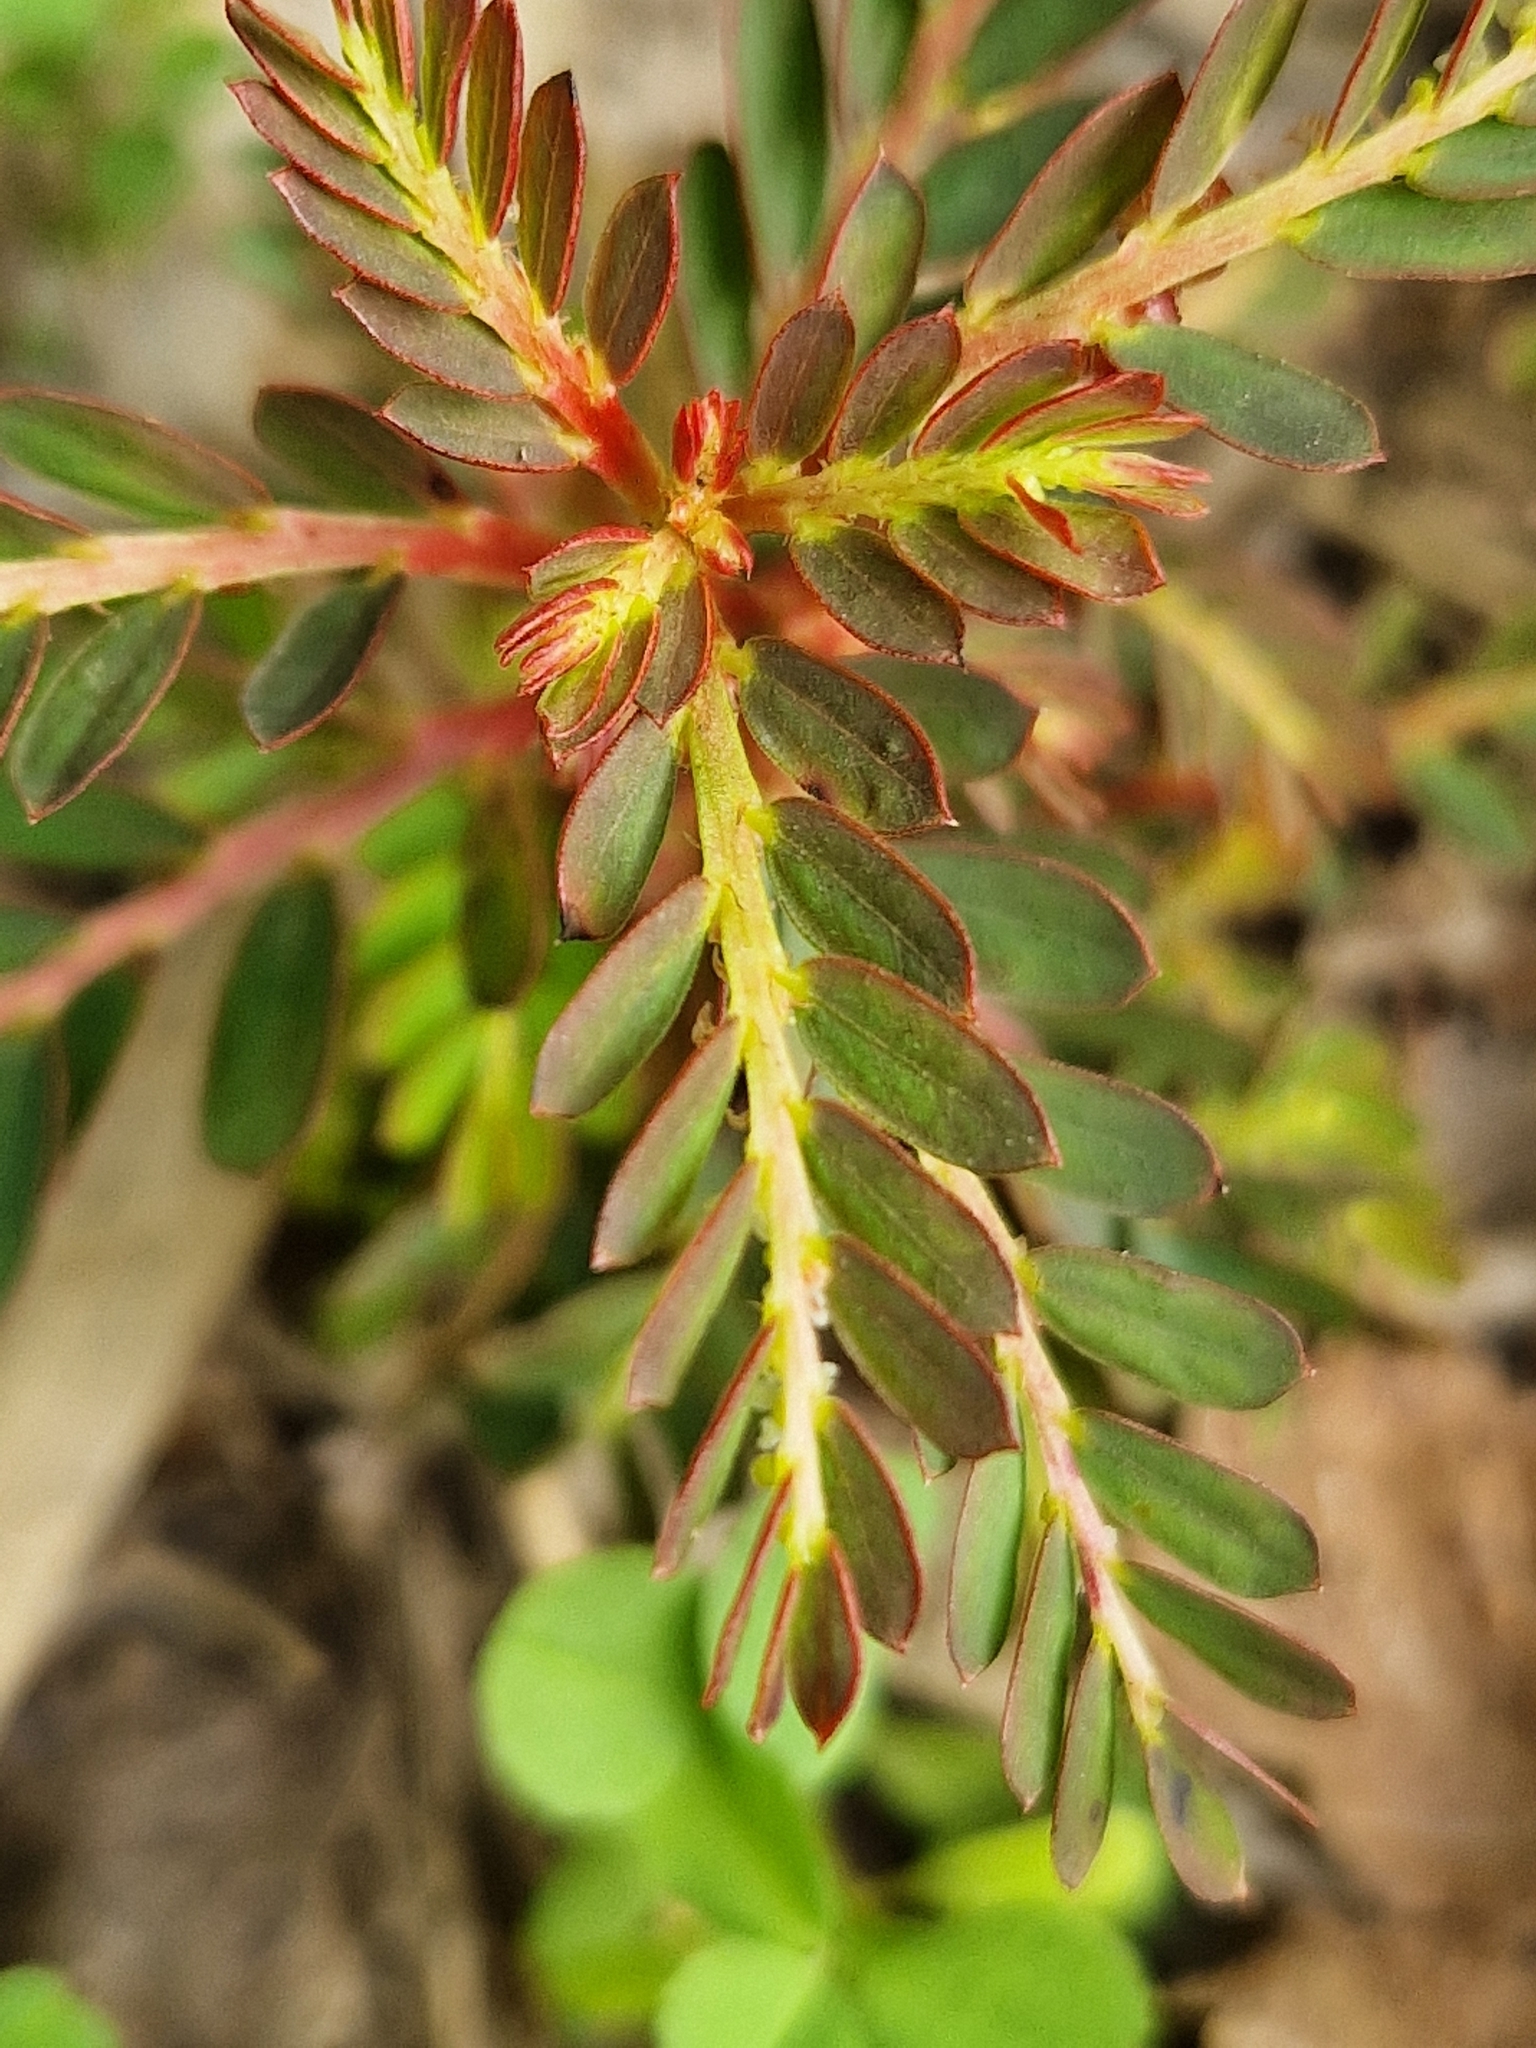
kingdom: Plantae
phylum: Tracheophyta
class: Magnoliopsida
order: Malpighiales
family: Phyllanthaceae
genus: Phyllanthus
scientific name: Phyllanthus urinaria
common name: Chamber bitter
